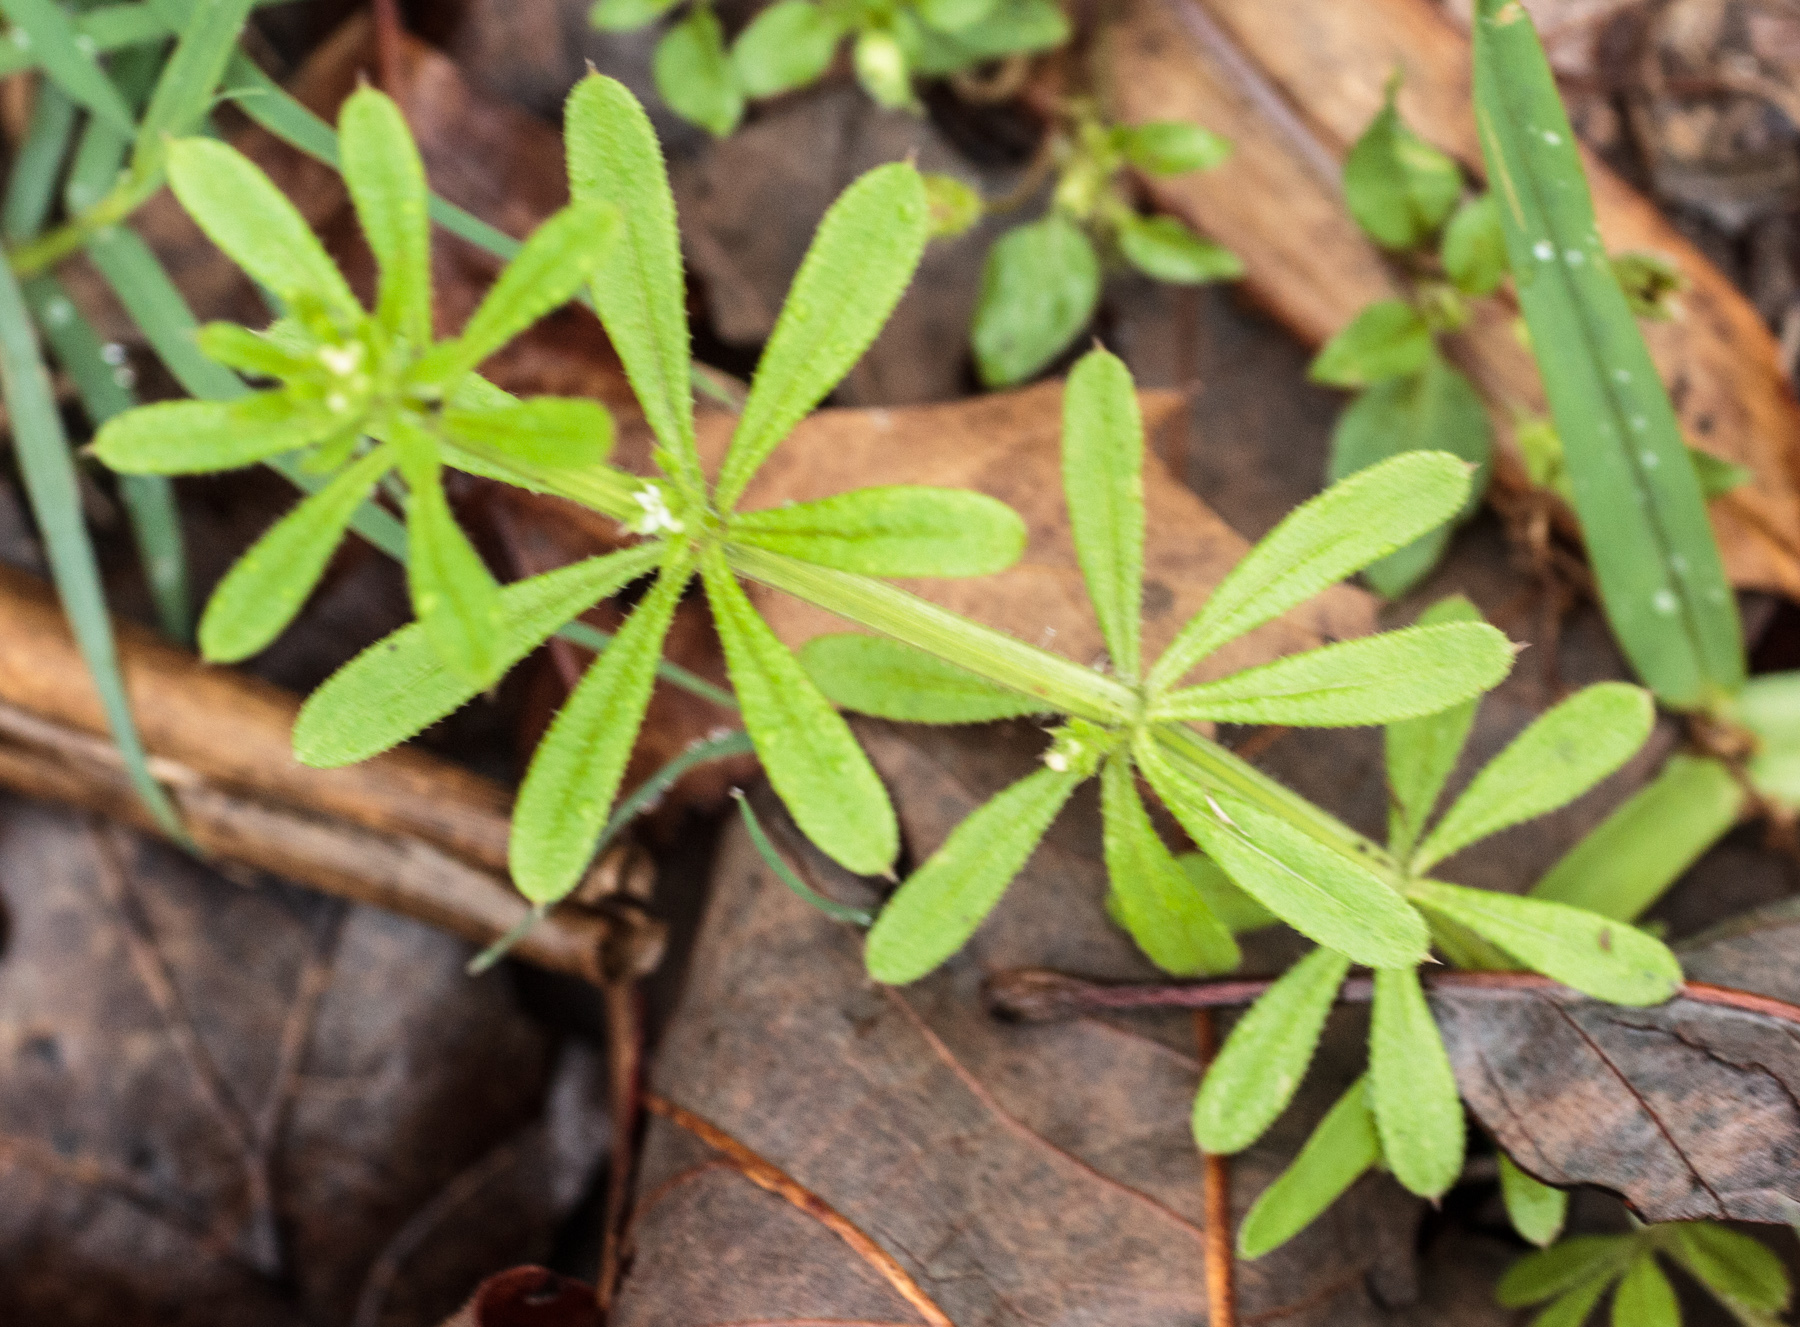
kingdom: Plantae
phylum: Tracheophyta
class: Magnoliopsida
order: Gentianales
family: Rubiaceae
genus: Galium
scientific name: Galium aparine
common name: Cleavers
